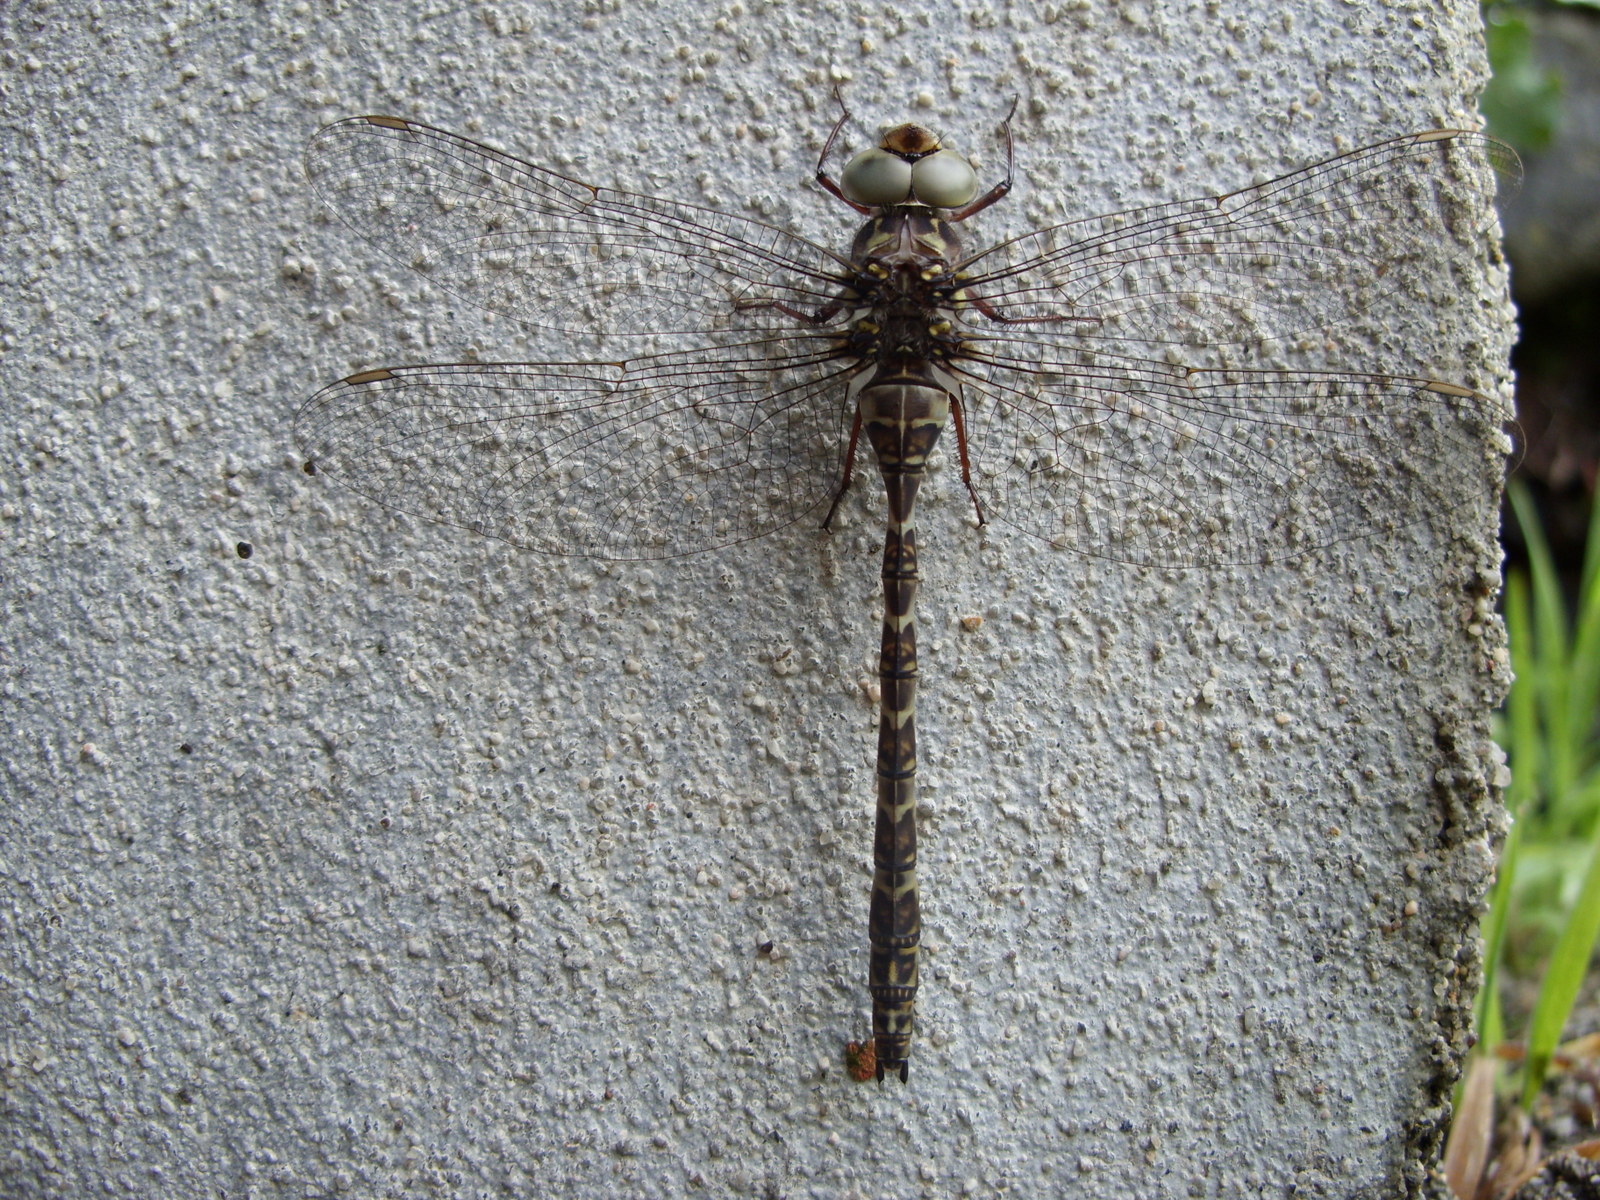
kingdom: Animalia
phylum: Arthropoda
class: Insecta
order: Odonata
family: Aeshnidae
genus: Boyeria
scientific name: Boyeria irene
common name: Western spectre
